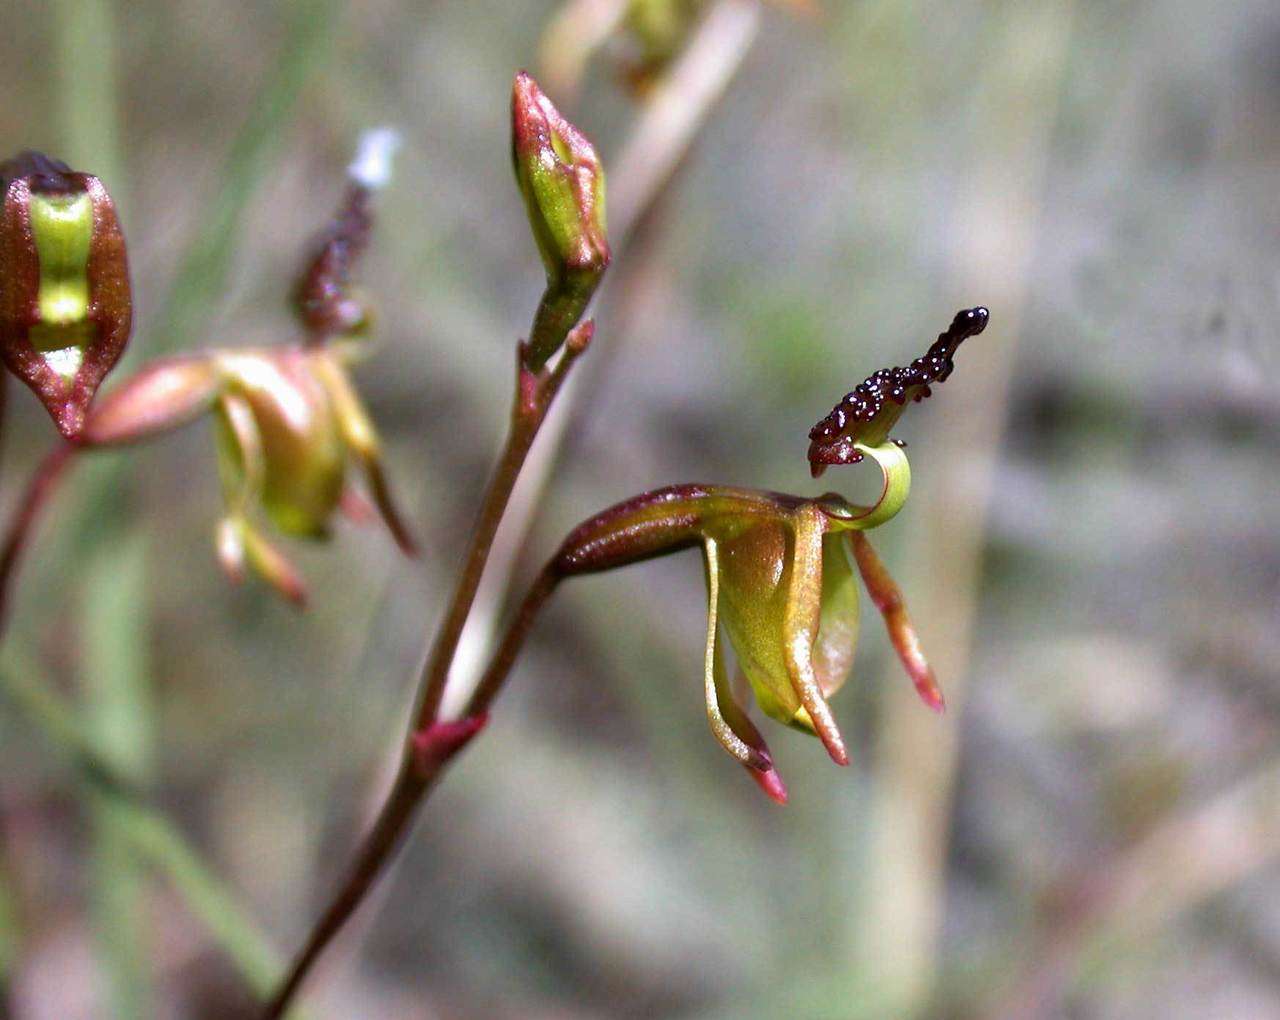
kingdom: Plantae
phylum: Tracheophyta
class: Liliopsida
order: Asparagales
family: Orchidaceae
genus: Caleana
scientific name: Caleana minor
